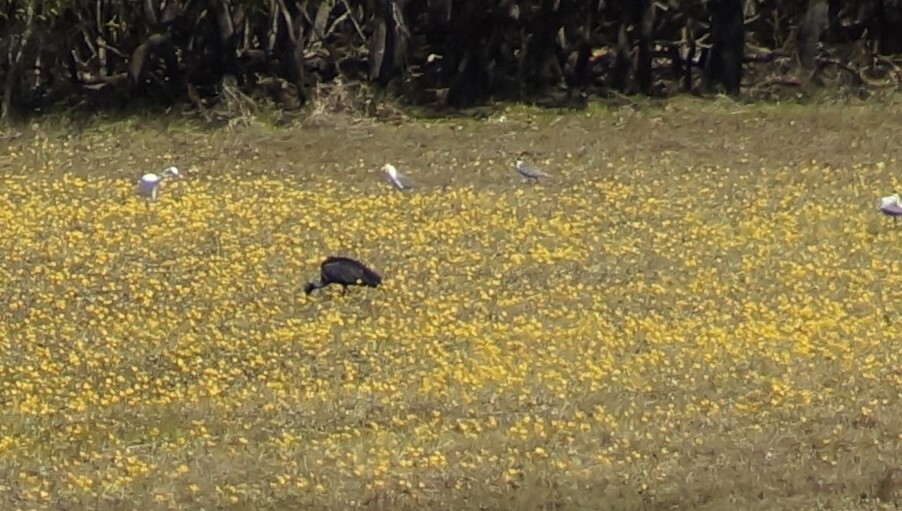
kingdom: Animalia
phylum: Chordata
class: Aves
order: Pelecaniformes
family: Threskiornithidae
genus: Threskiornis
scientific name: Threskiornis spinicollis
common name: Straw-necked ibis
